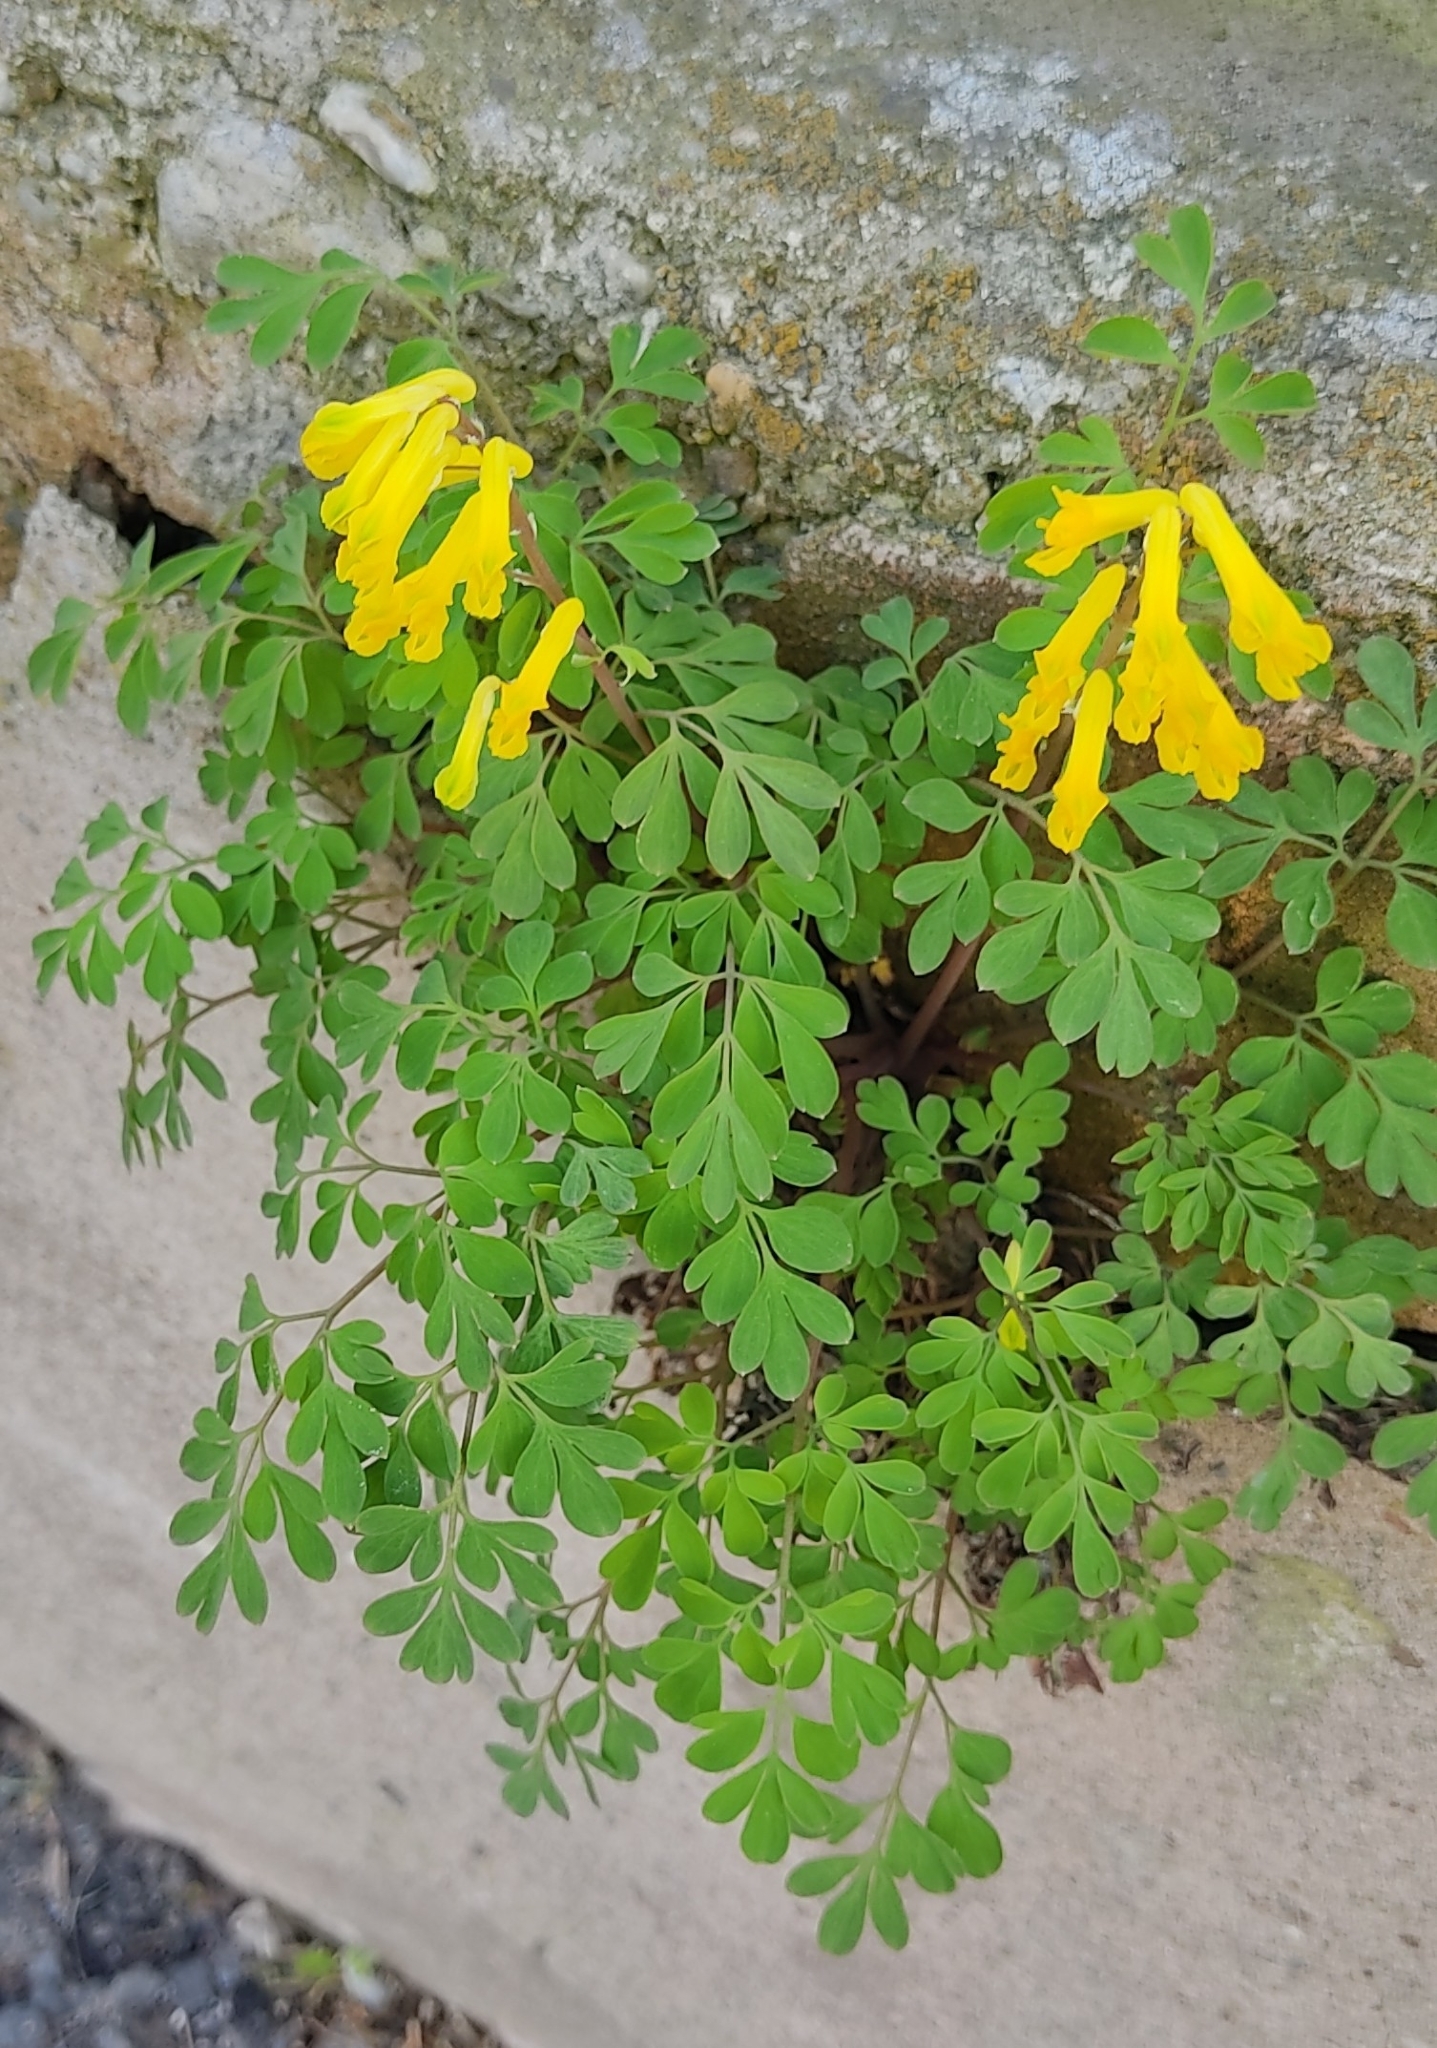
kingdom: Plantae
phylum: Tracheophyta
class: Magnoliopsida
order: Ranunculales
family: Papaveraceae
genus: Pseudofumaria
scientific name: Pseudofumaria lutea
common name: Yellow corydalis
